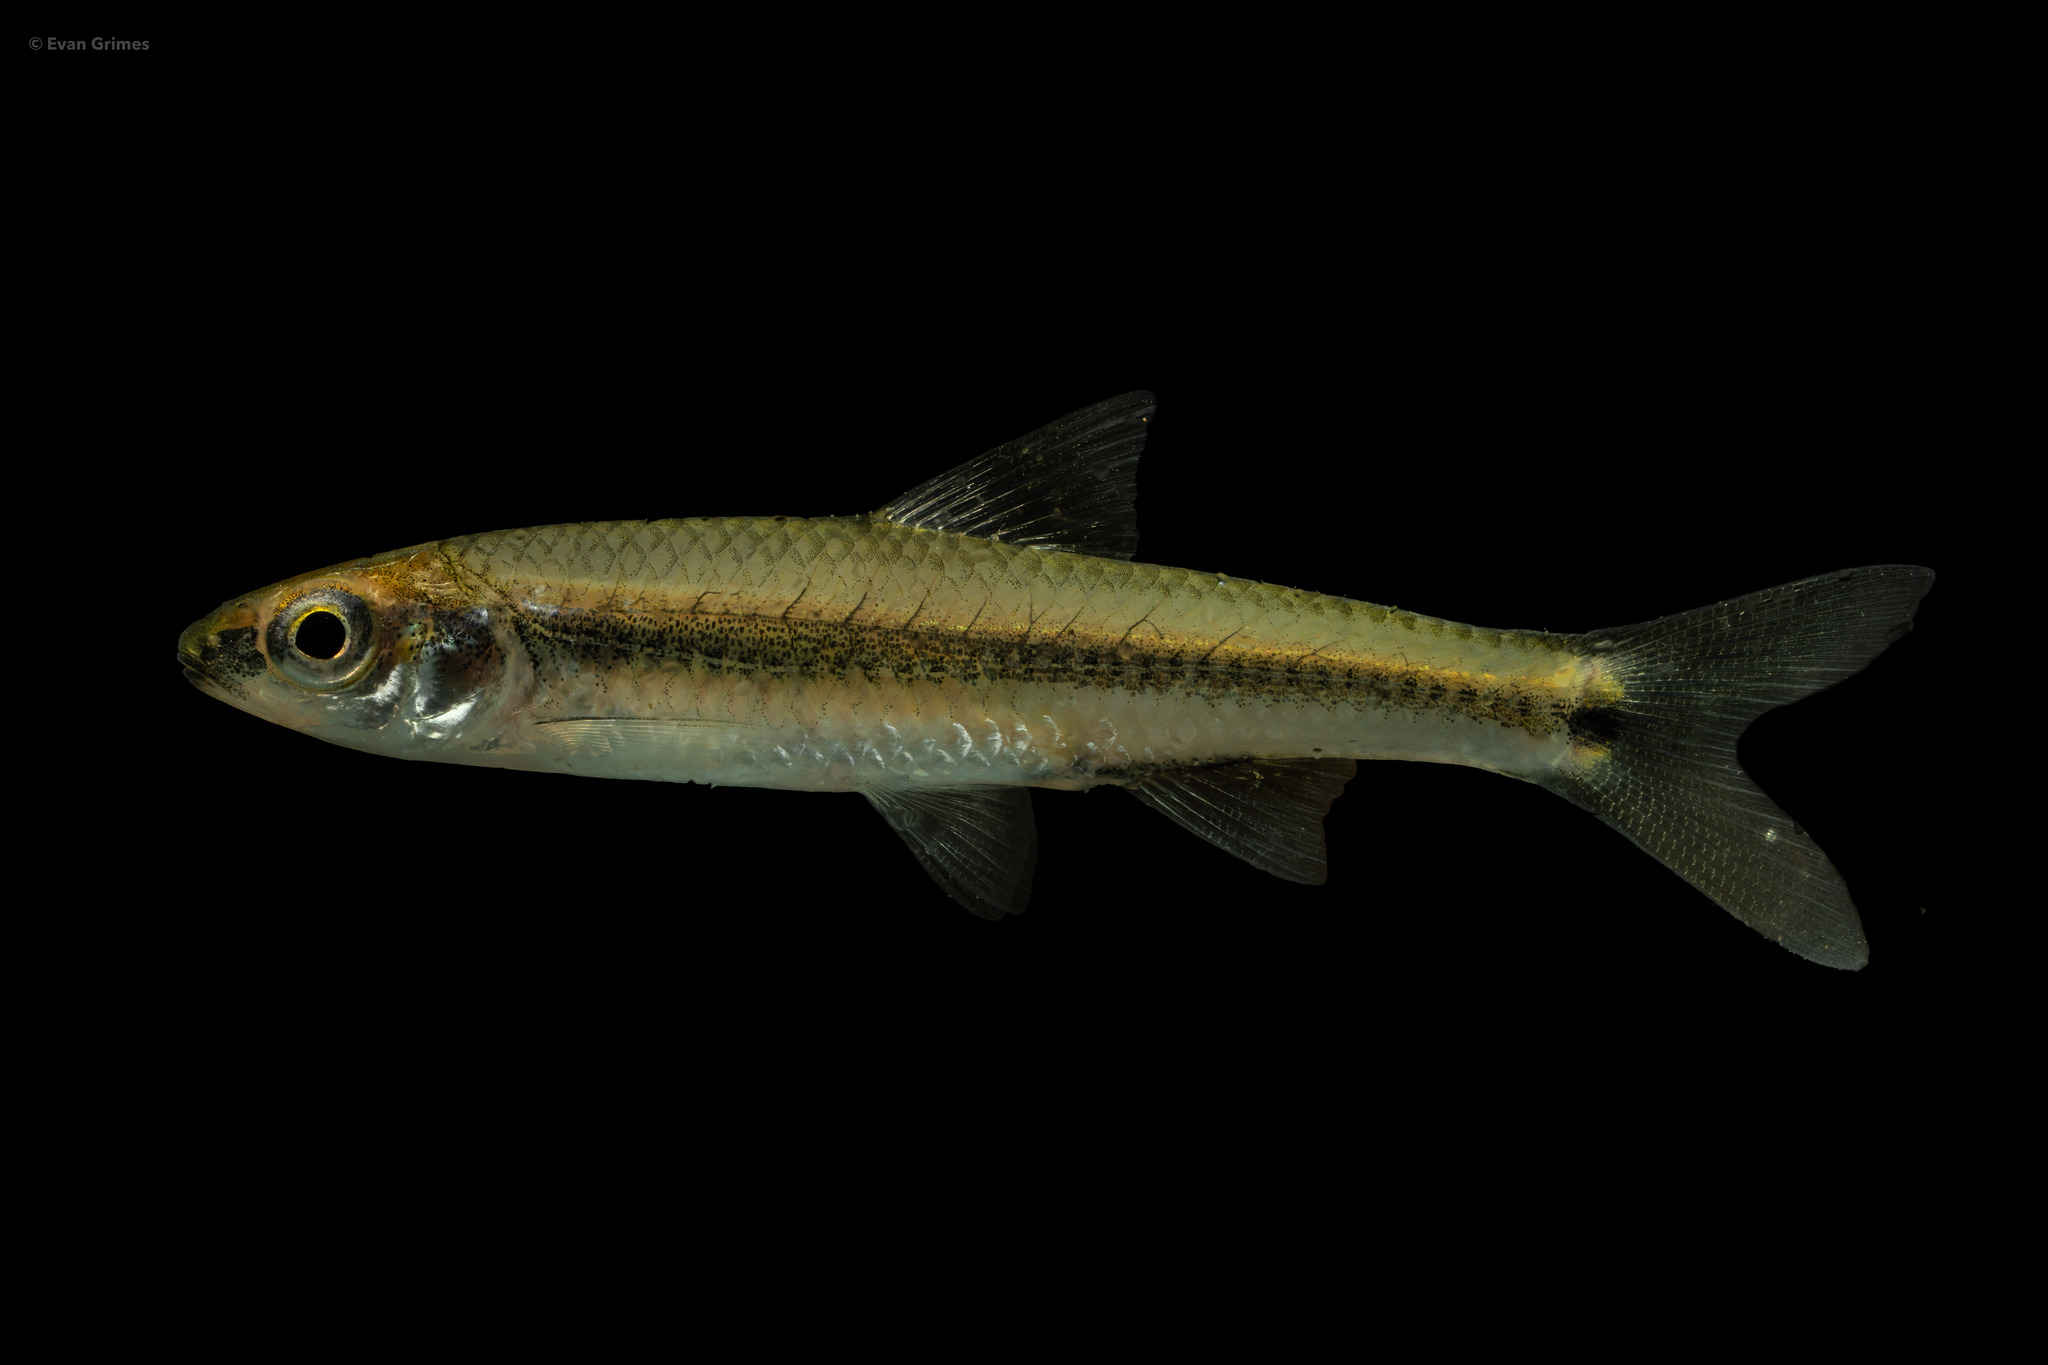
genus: Alburnops
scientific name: Alburnops
